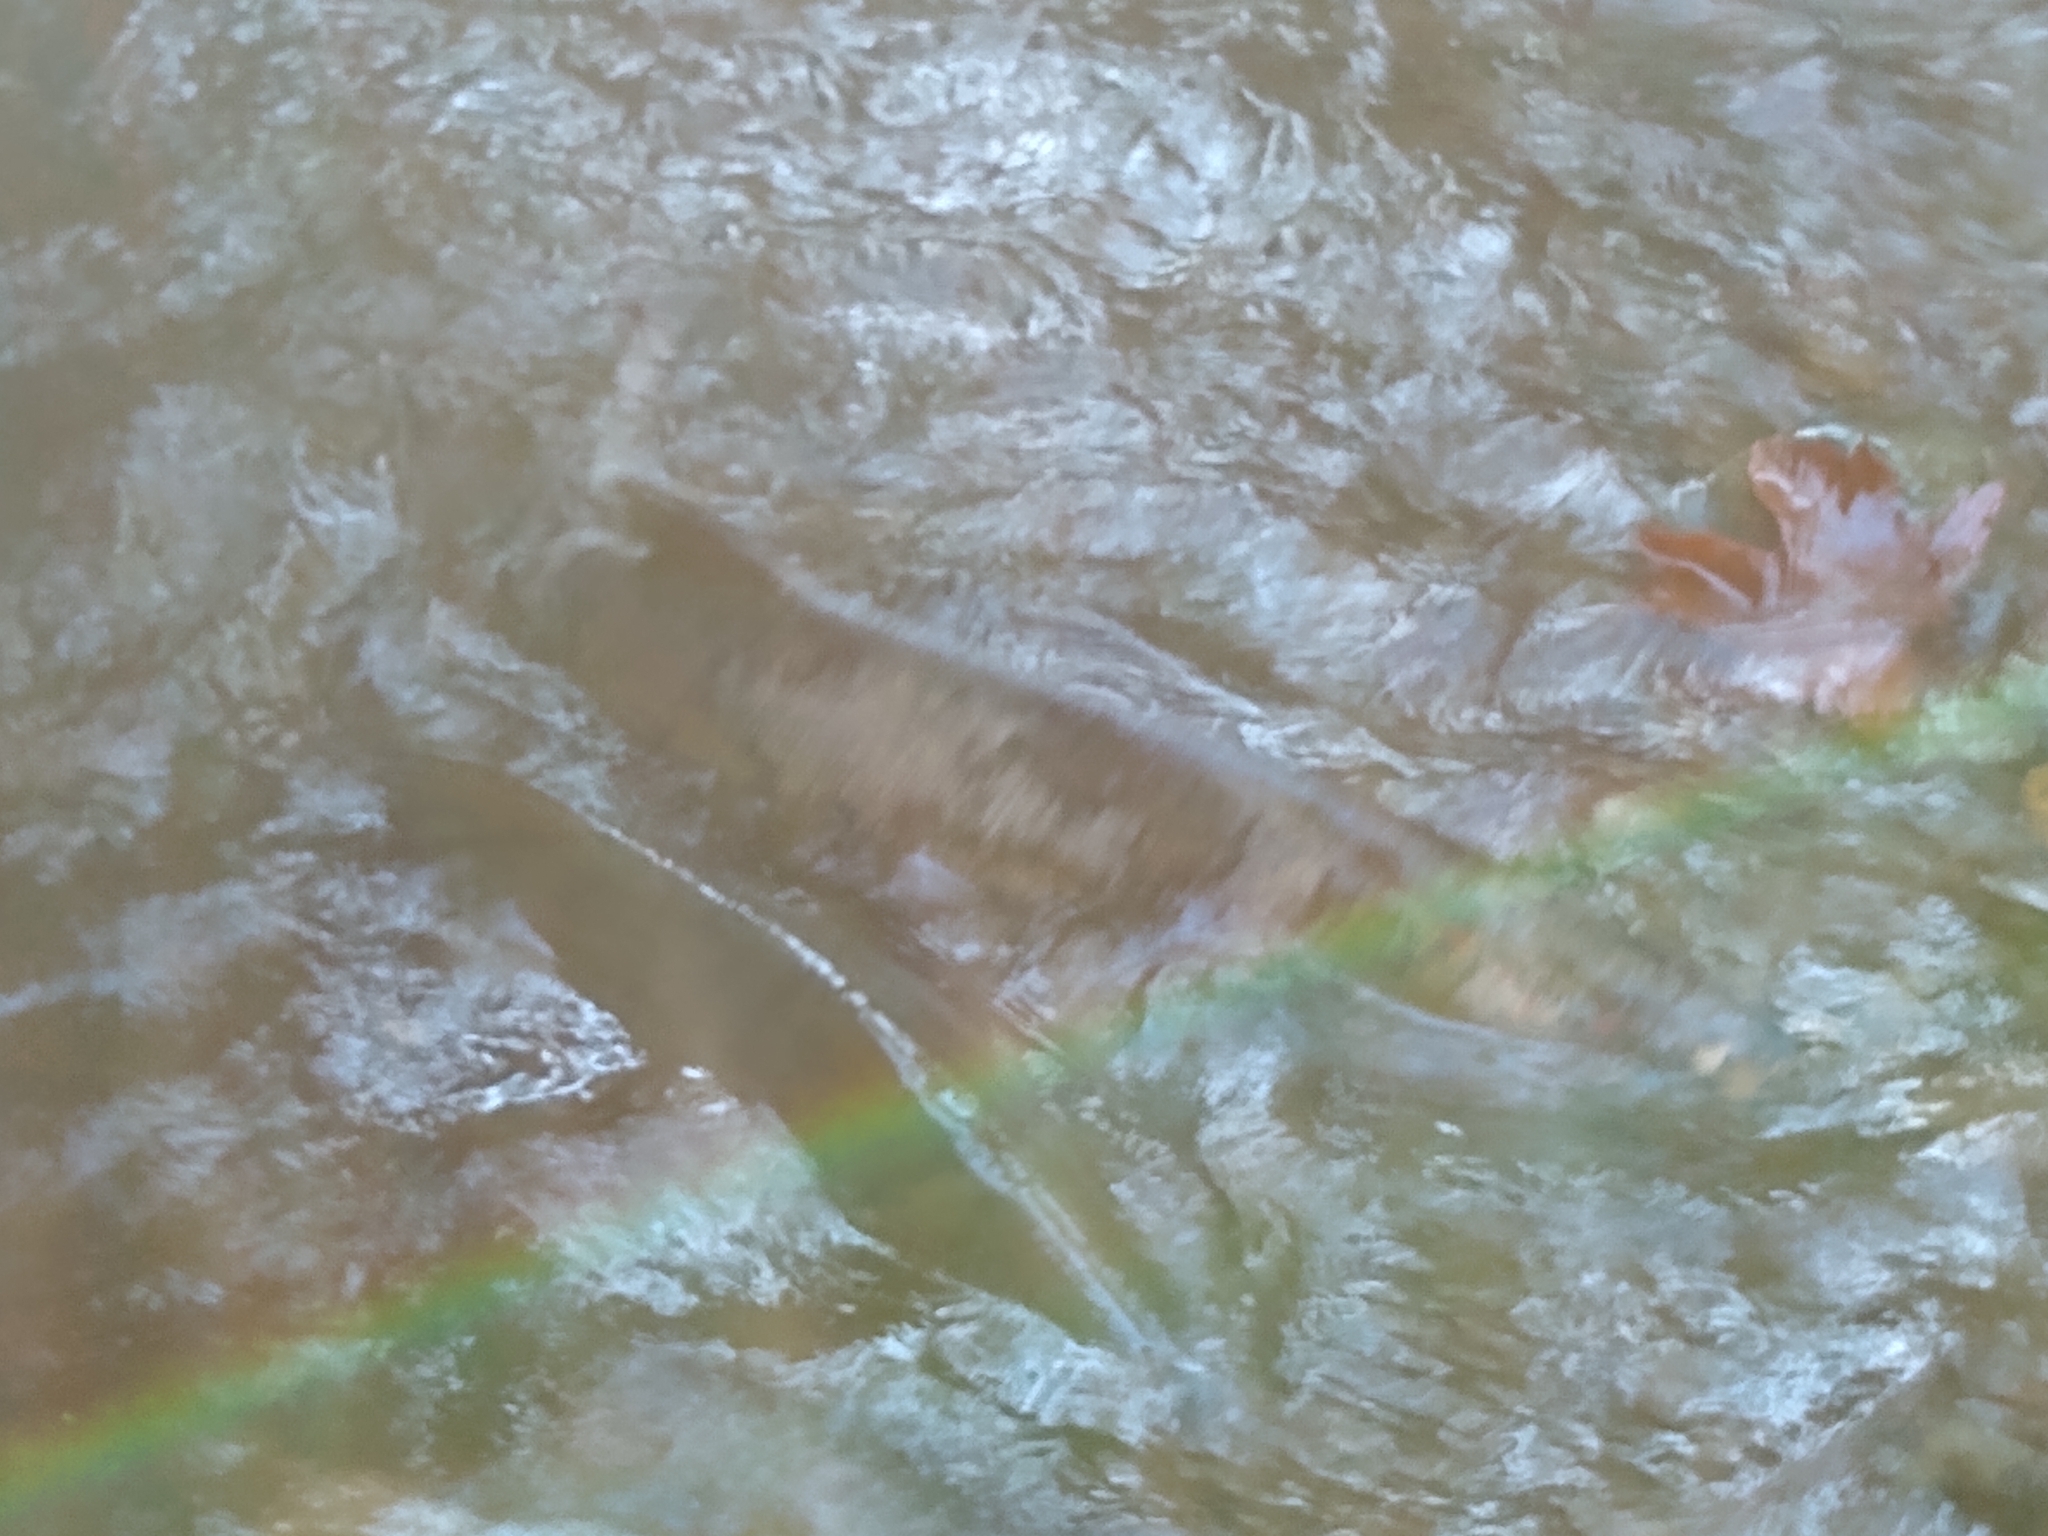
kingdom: Animalia
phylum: Chordata
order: Salmoniformes
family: Salmonidae
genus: Oncorhynchus
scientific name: Oncorhynchus keta
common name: Chum salmon
